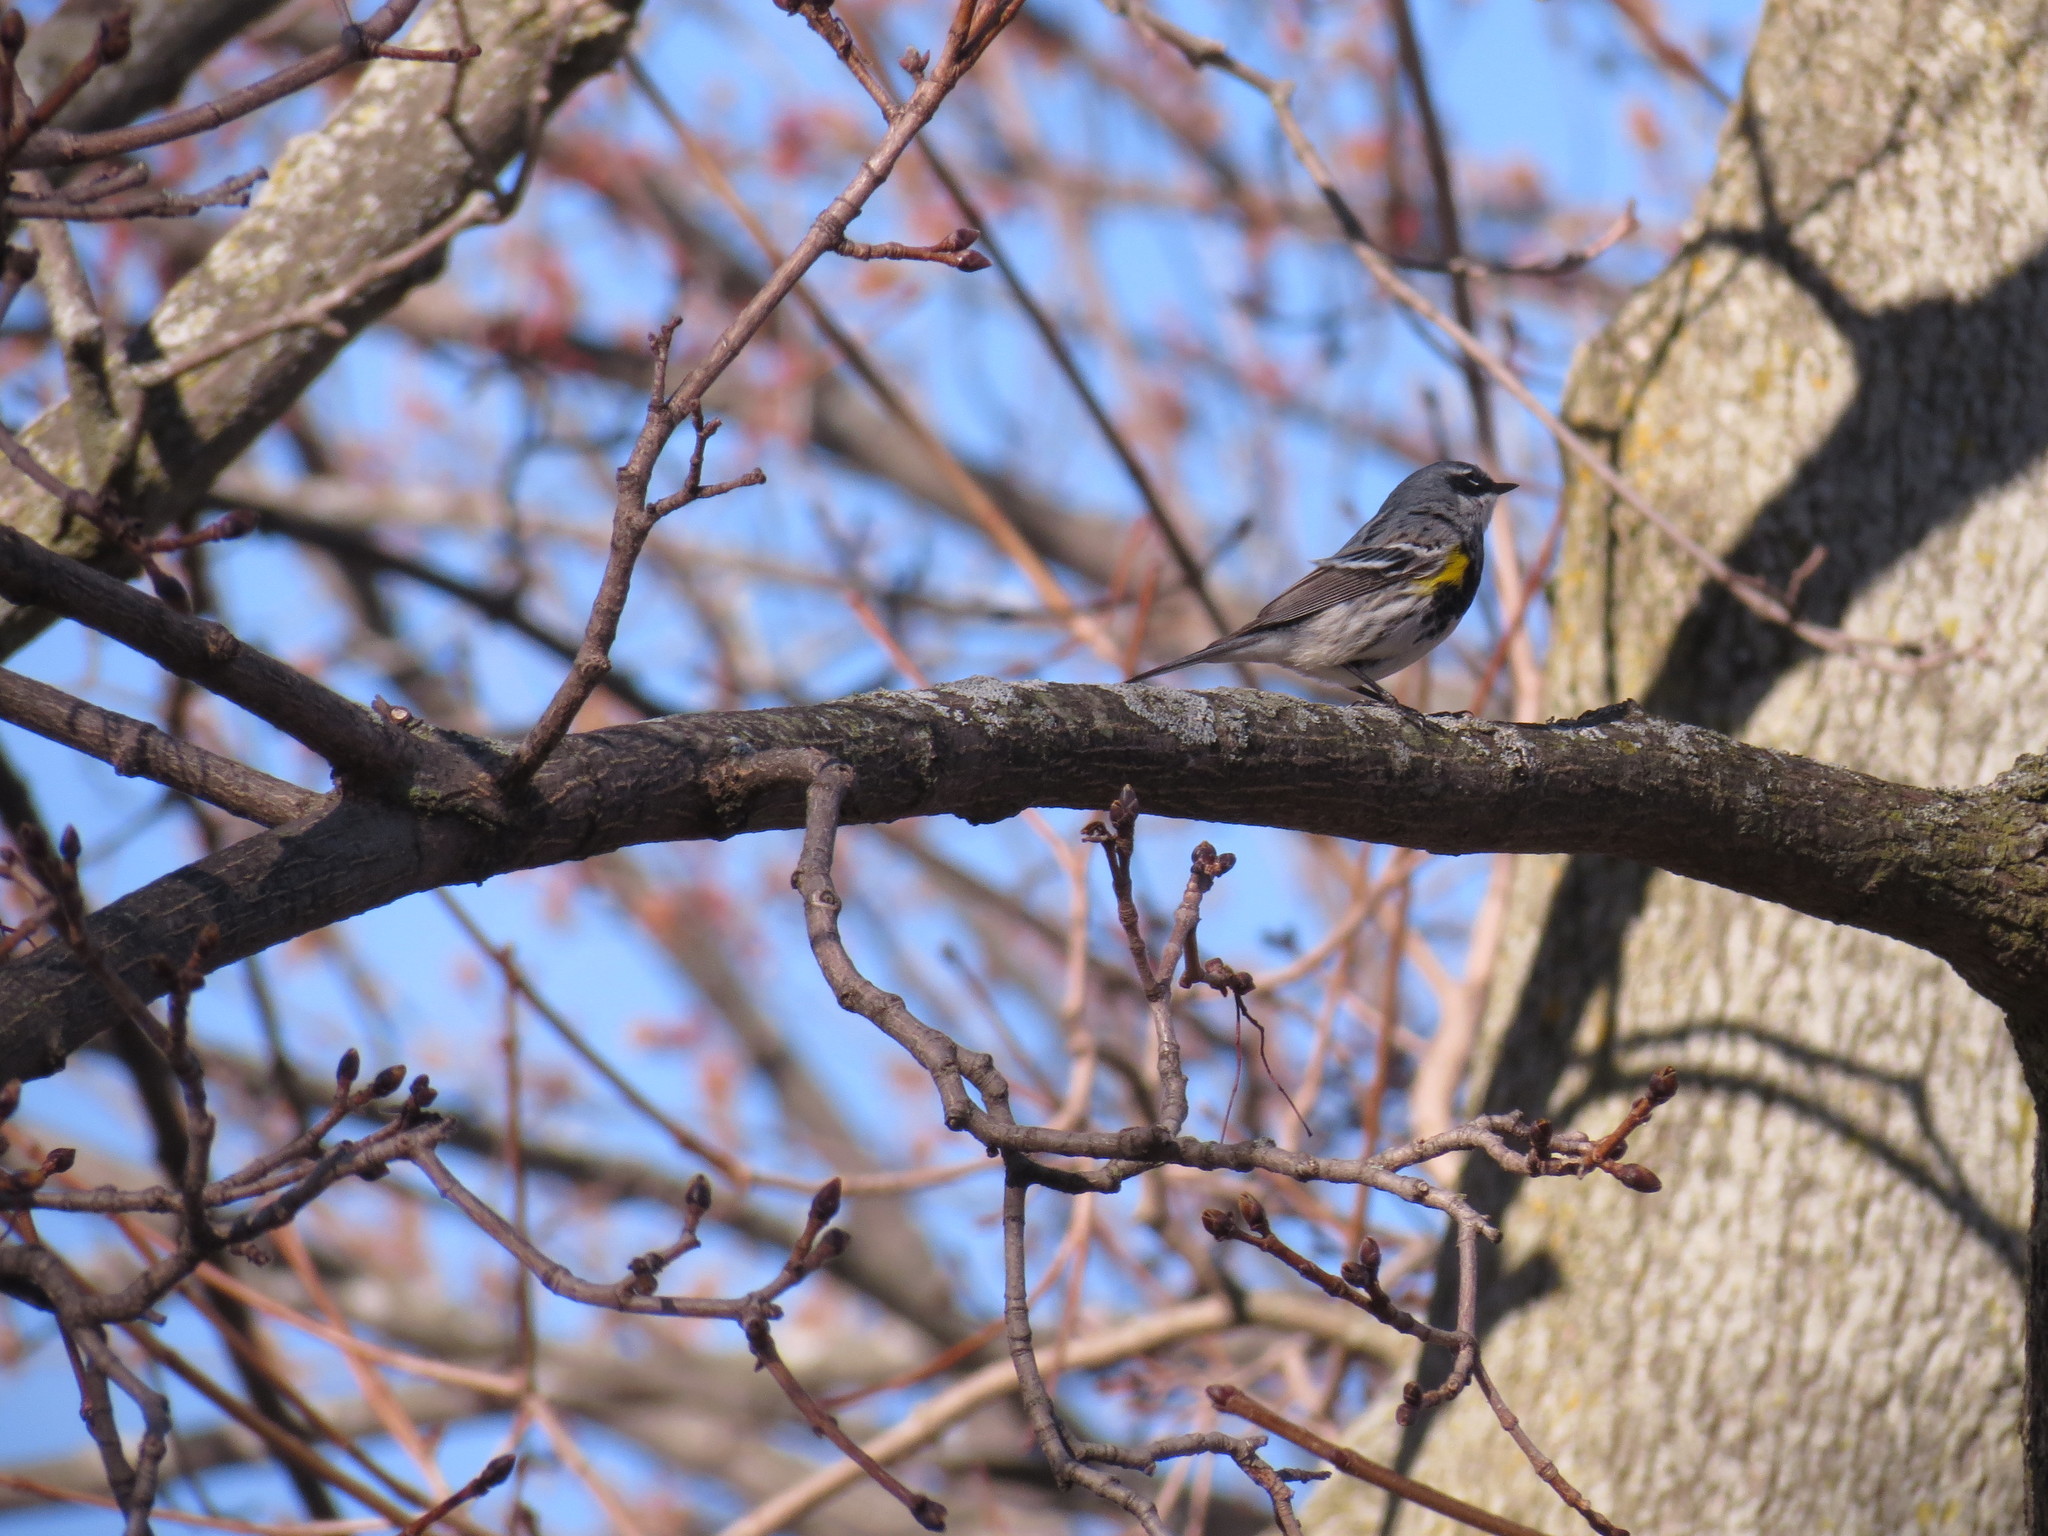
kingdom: Animalia
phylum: Chordata
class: Aves
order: Passeriformes
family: Parulidae
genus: Setophaga
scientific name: Setophaga coronata
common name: Myrtle warbler
